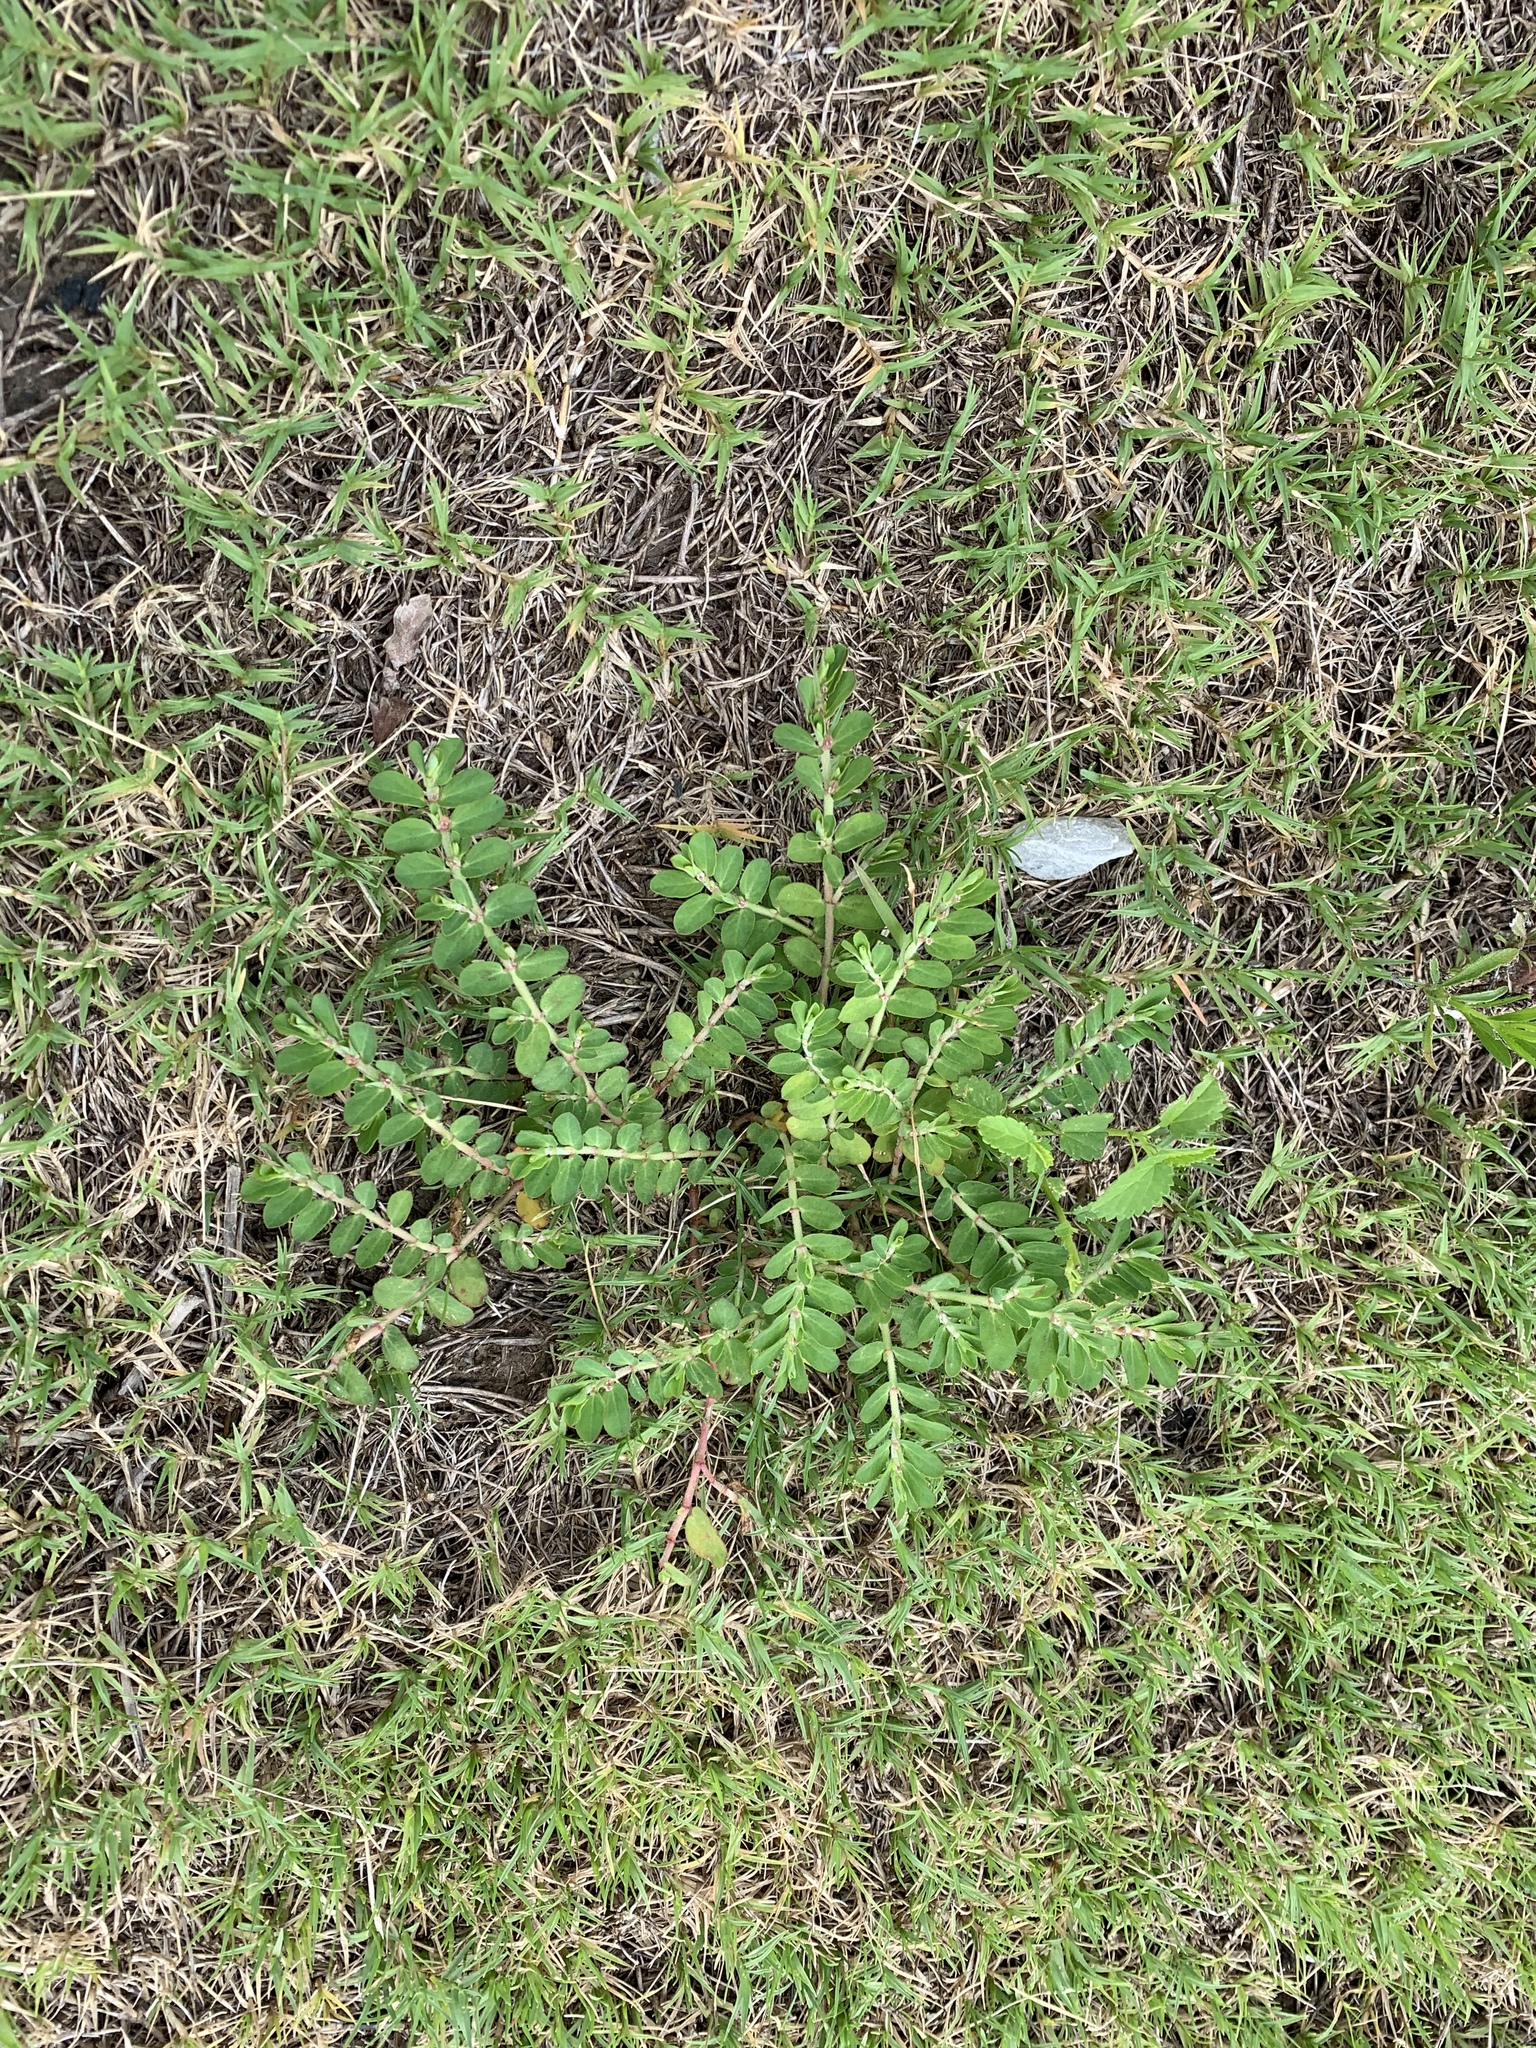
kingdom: Plantae
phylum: Tracheophyta
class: Magnoliopsida
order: Malpighiales
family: Euphorbiaceae
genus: Euphorbia
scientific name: Euphorbia humistrata
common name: Hairy spreading spurge
